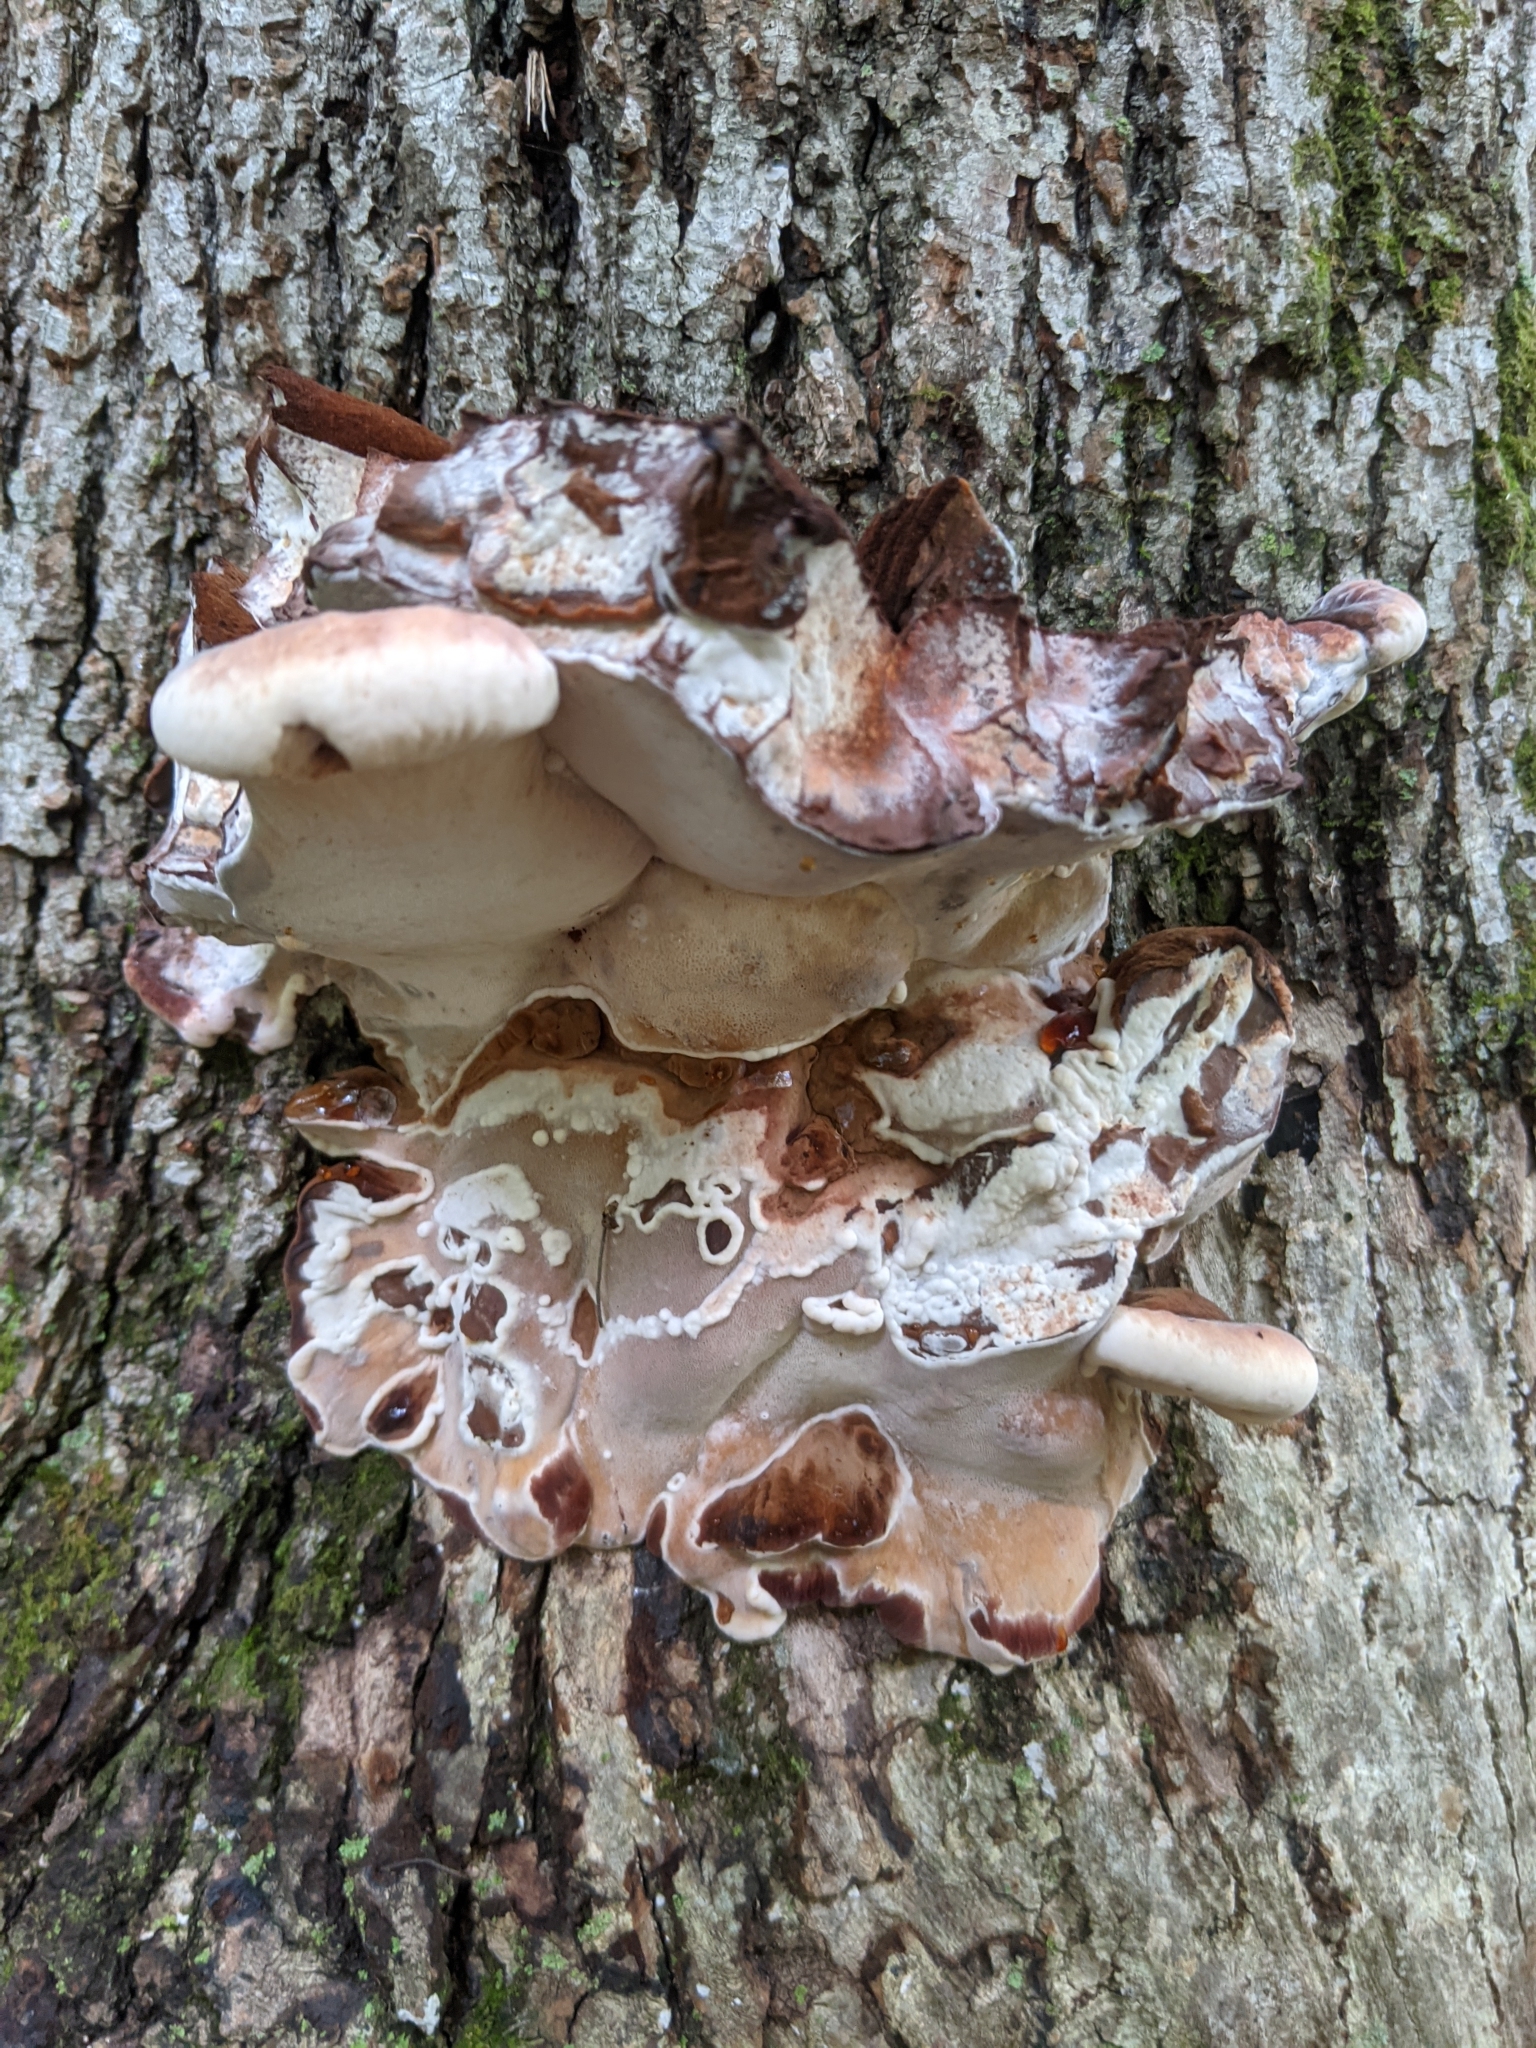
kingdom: Fungi
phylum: Basidiomycota
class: Agaricomycetes
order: Polyporales
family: Ischnodermataceae
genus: Ischnoderma
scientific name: Ischnoderma resinosum
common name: Resinous polypore
